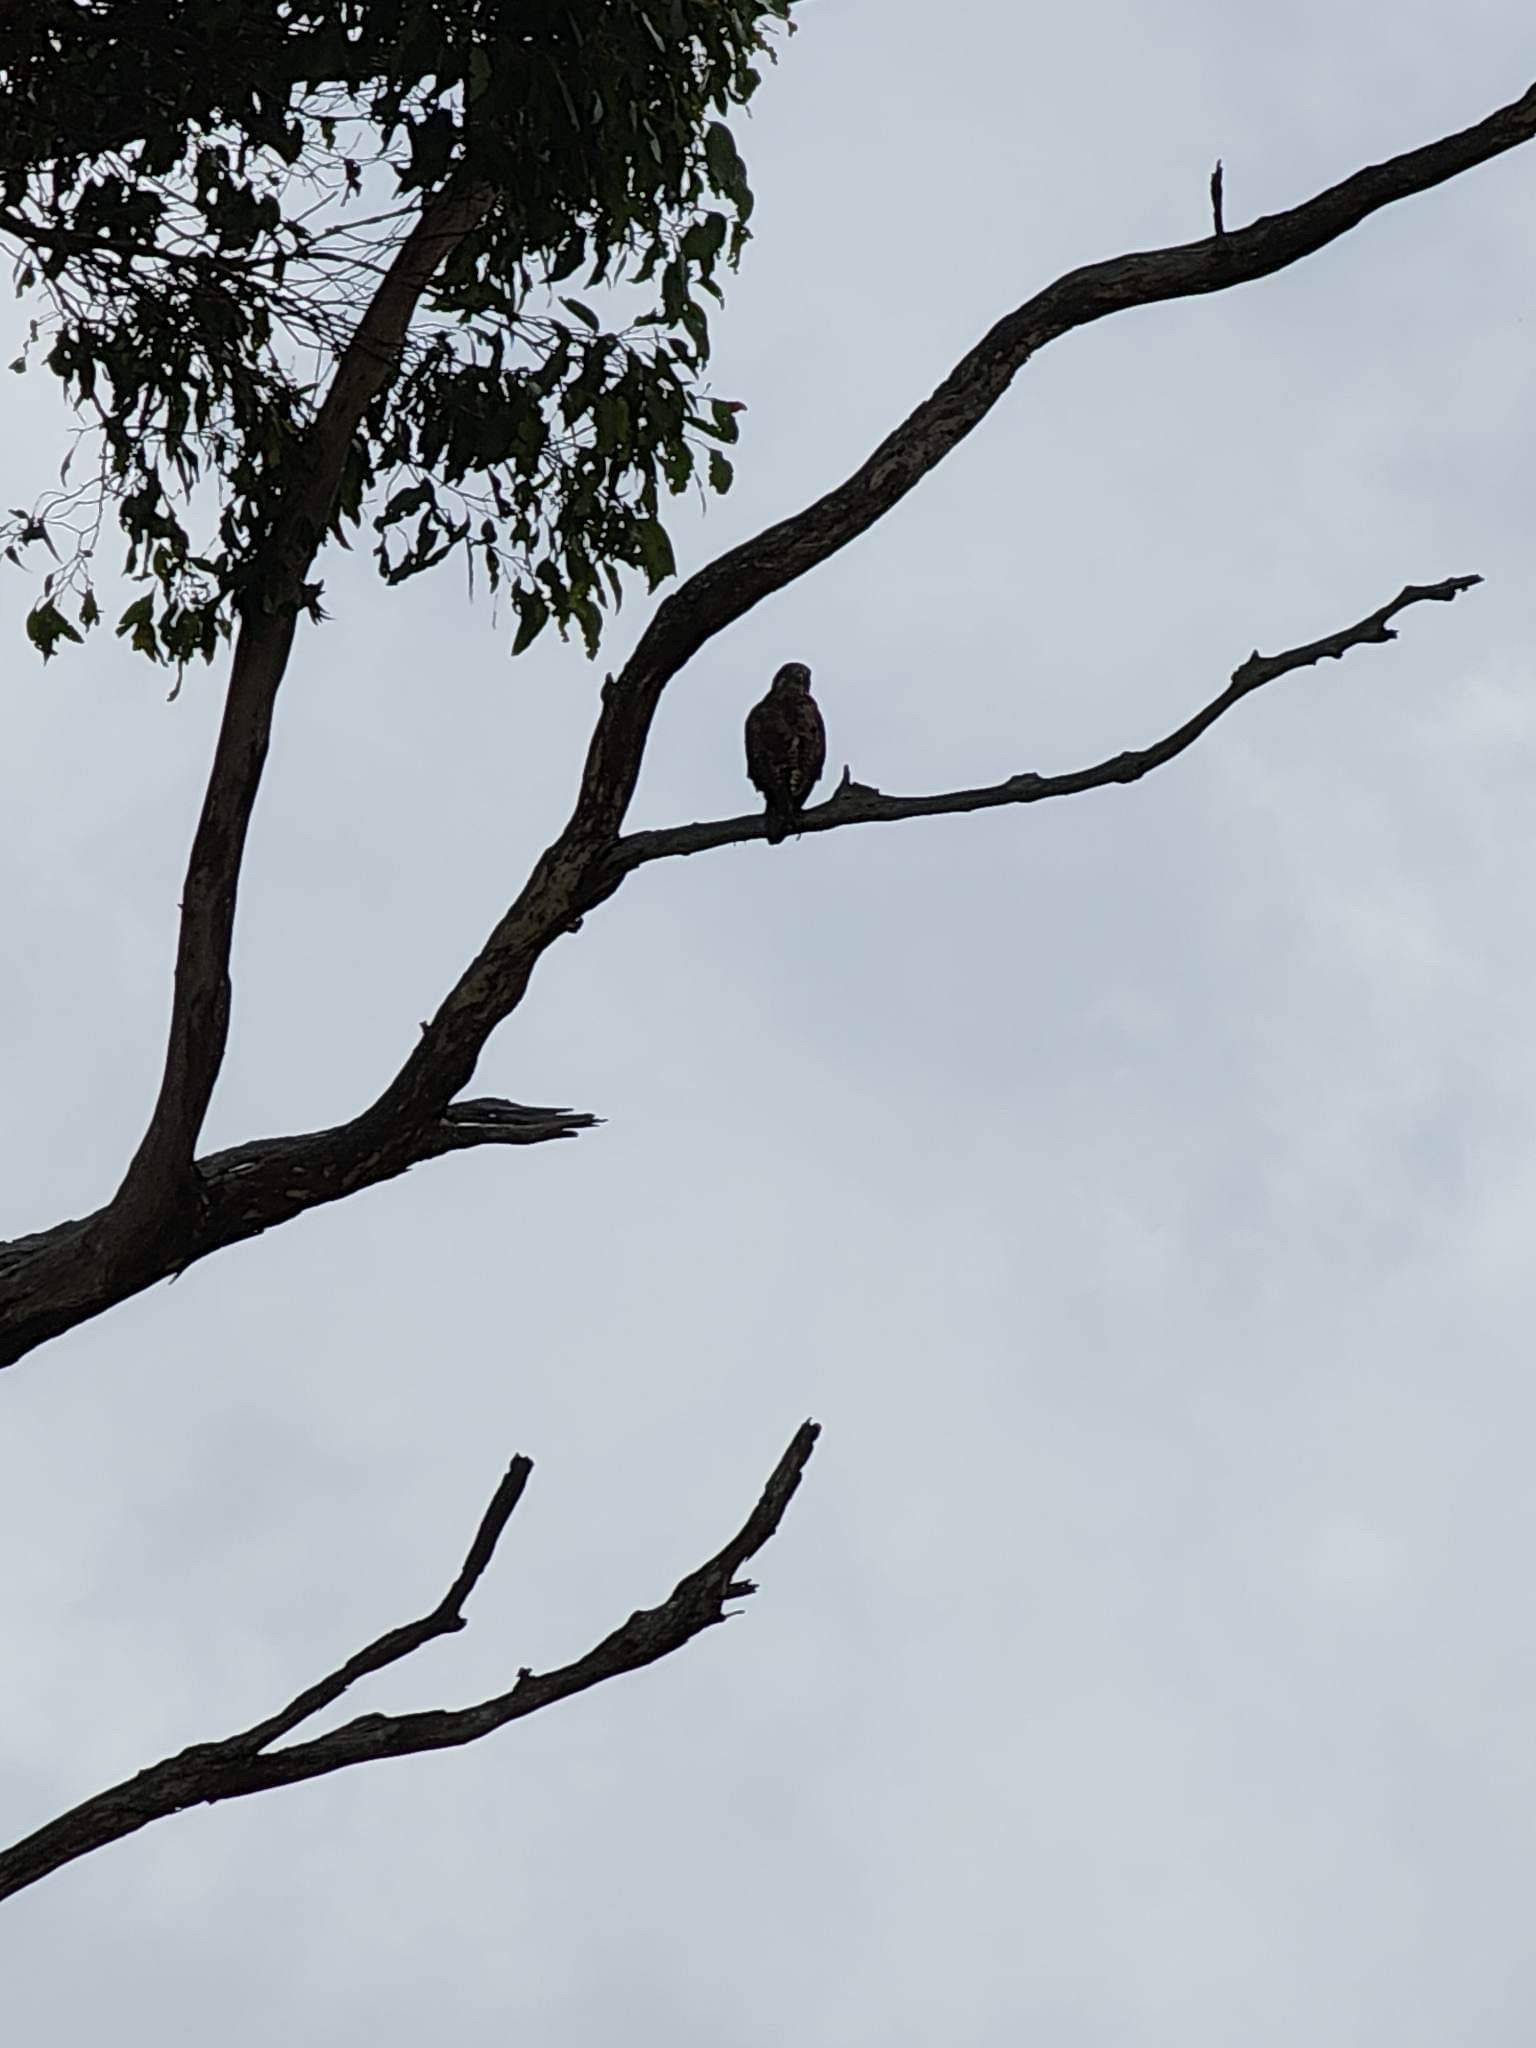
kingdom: Animalia
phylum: Chordata
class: Aves
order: Falconiformes
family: Falconidae
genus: Falco
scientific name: Falco berigora
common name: Brown falcon
